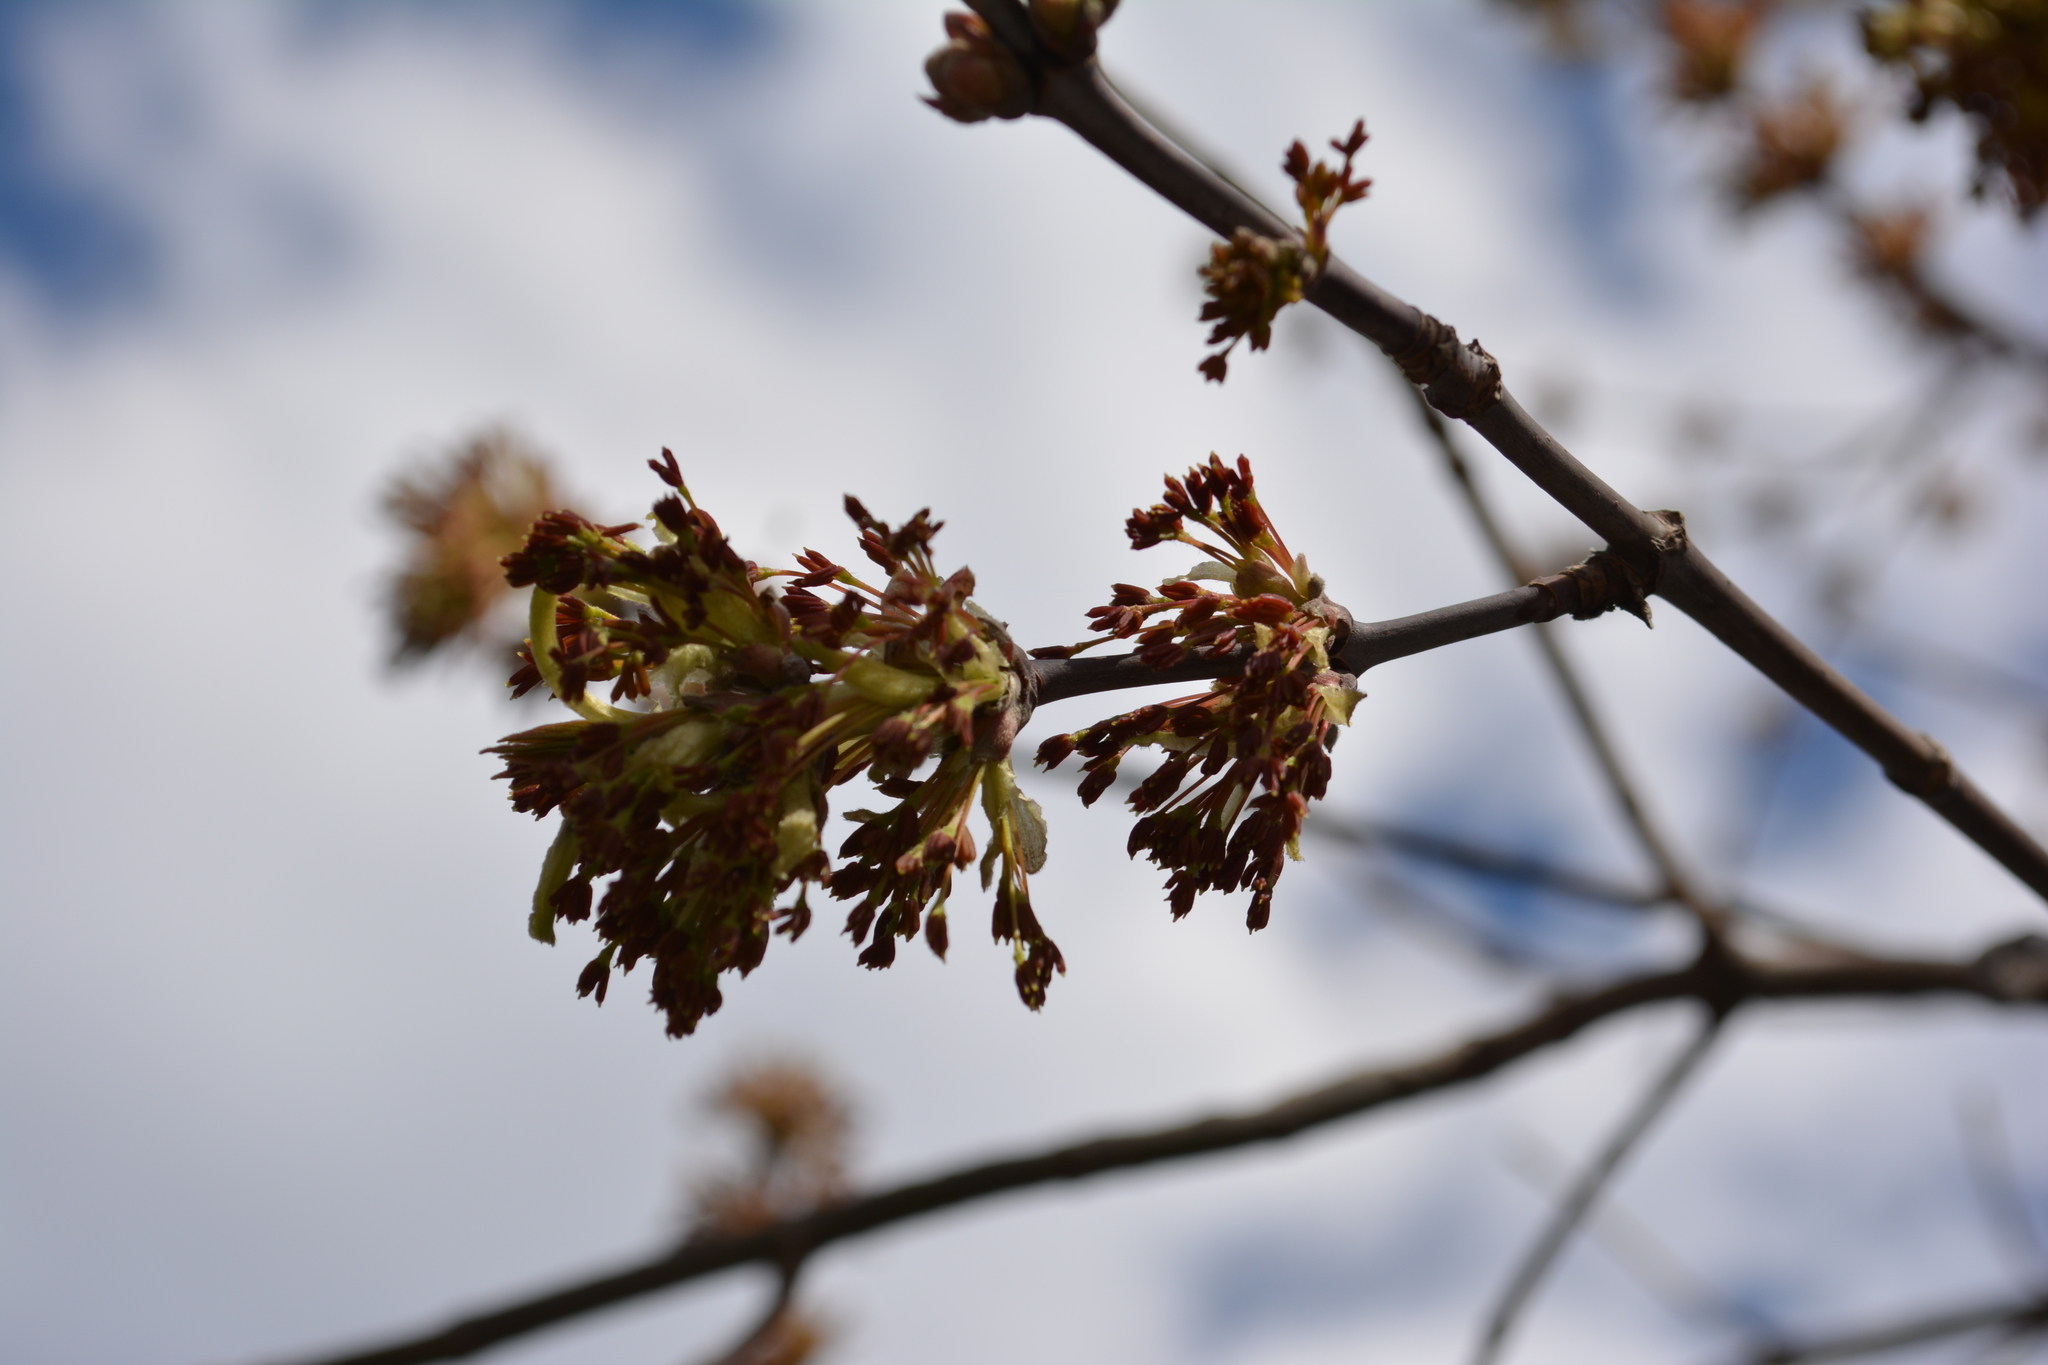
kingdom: Plantae
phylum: Tracheophyta
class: Magnoliopsida
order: Sapindales
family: Sapindaceae
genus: Acer
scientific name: Acer negundo
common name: Ashleaf maple
